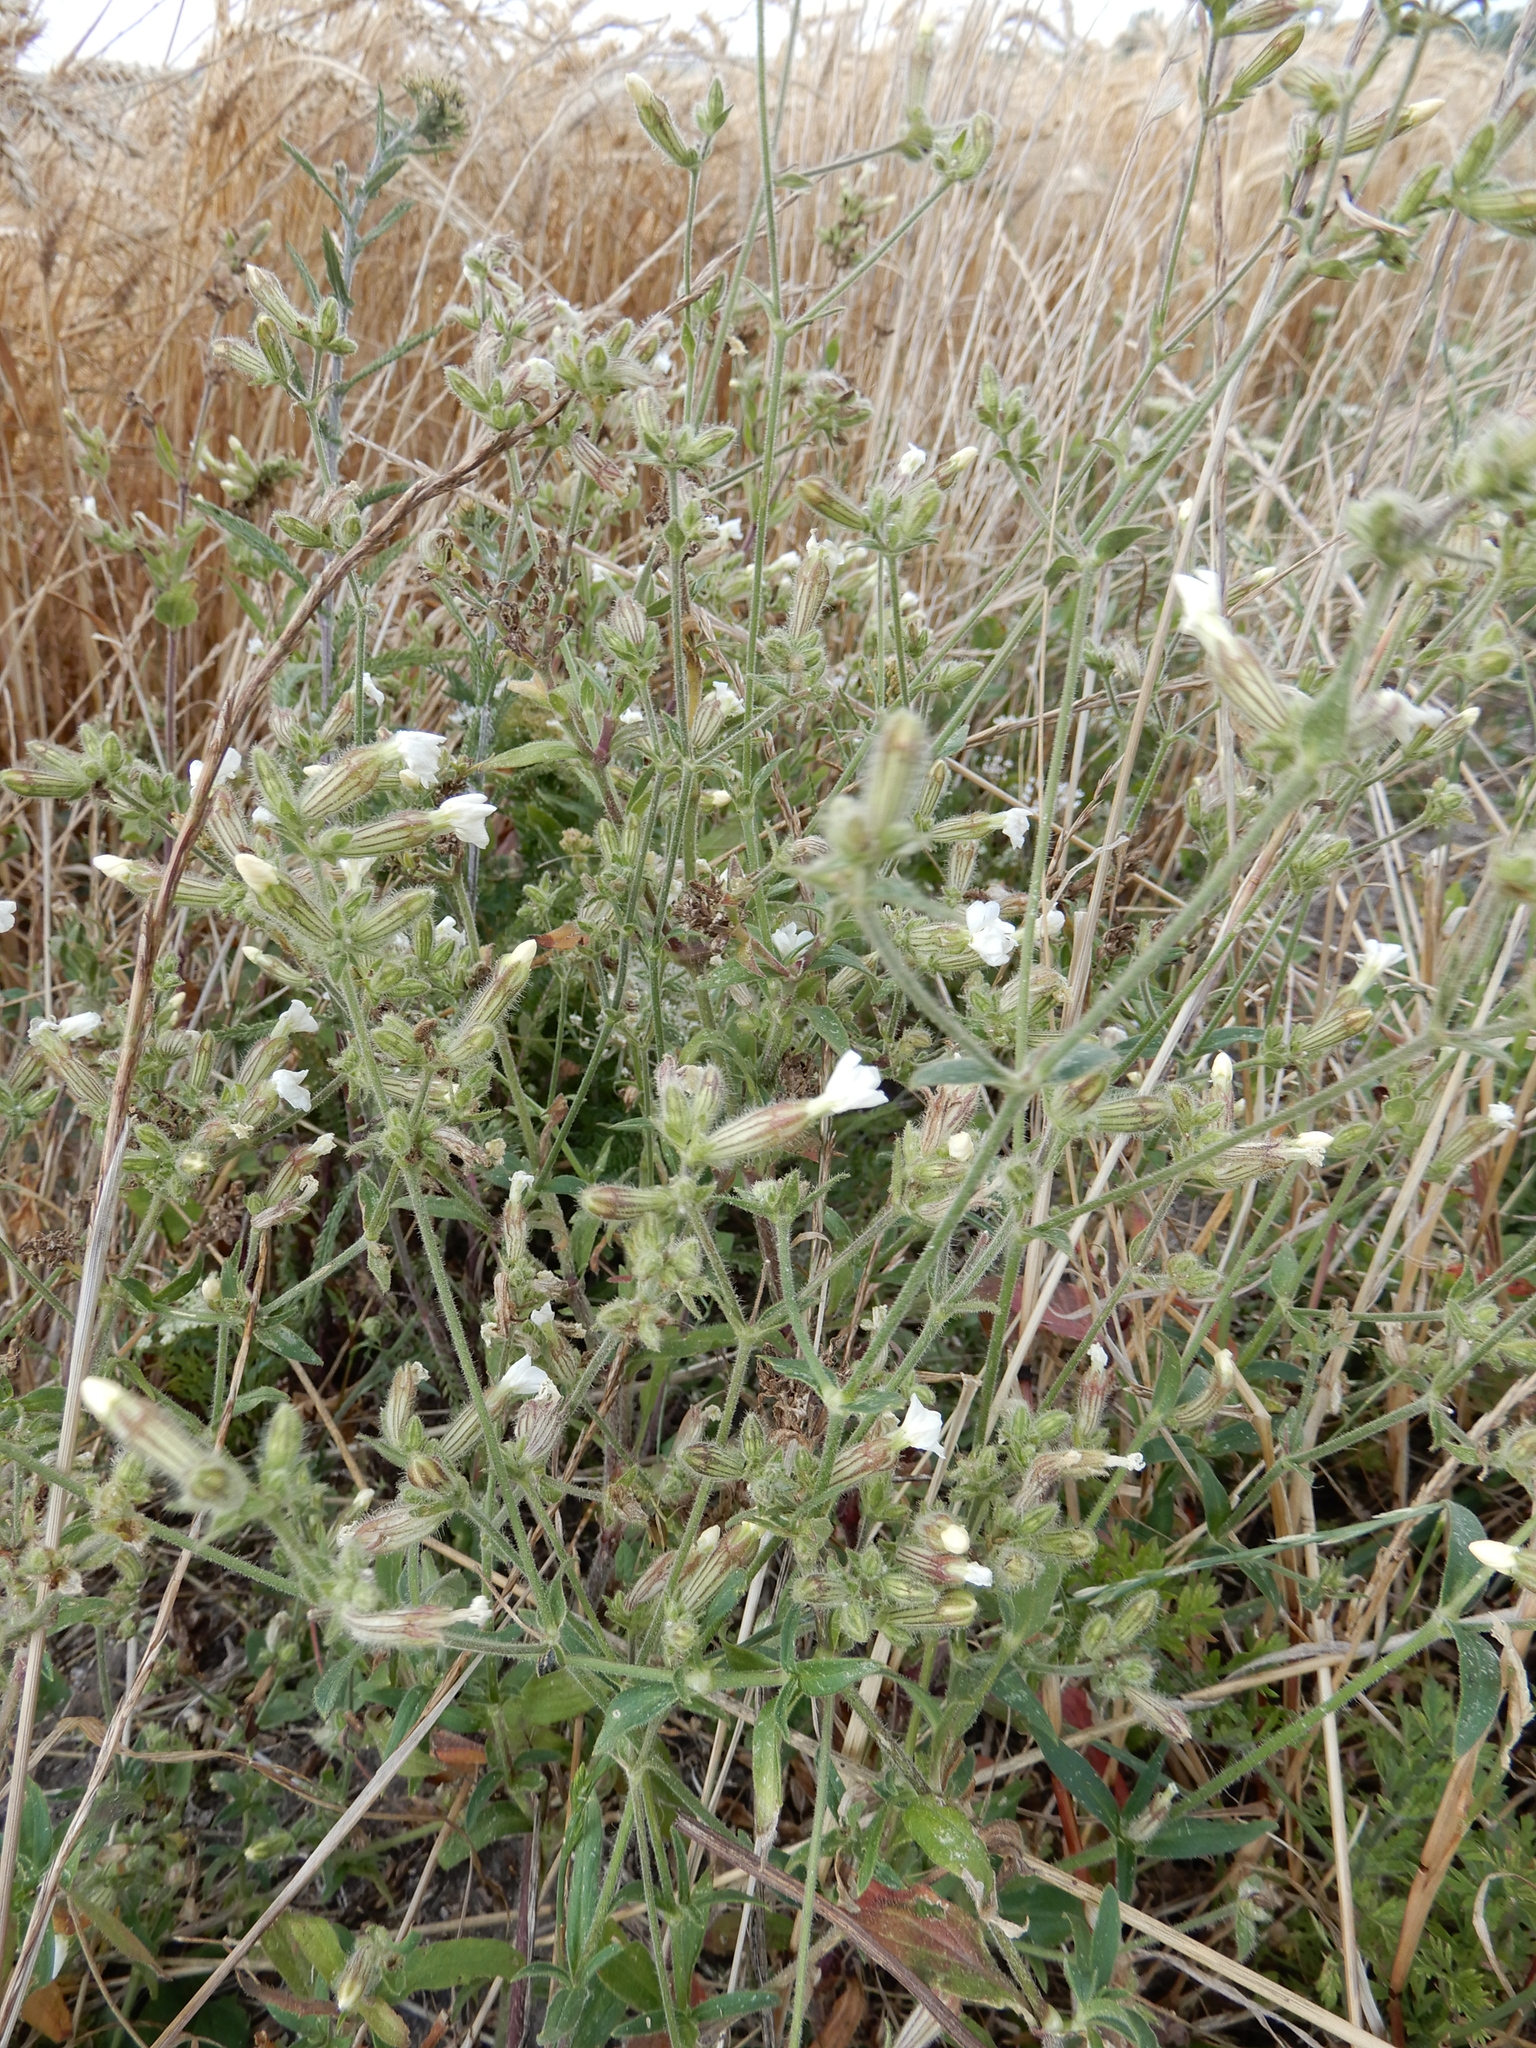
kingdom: Plantae
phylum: Tracheophyta
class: Magnoliopsida
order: Caryophyllales
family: Caryophyllaceae
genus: Silene
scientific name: Silene latifolia
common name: White campion
